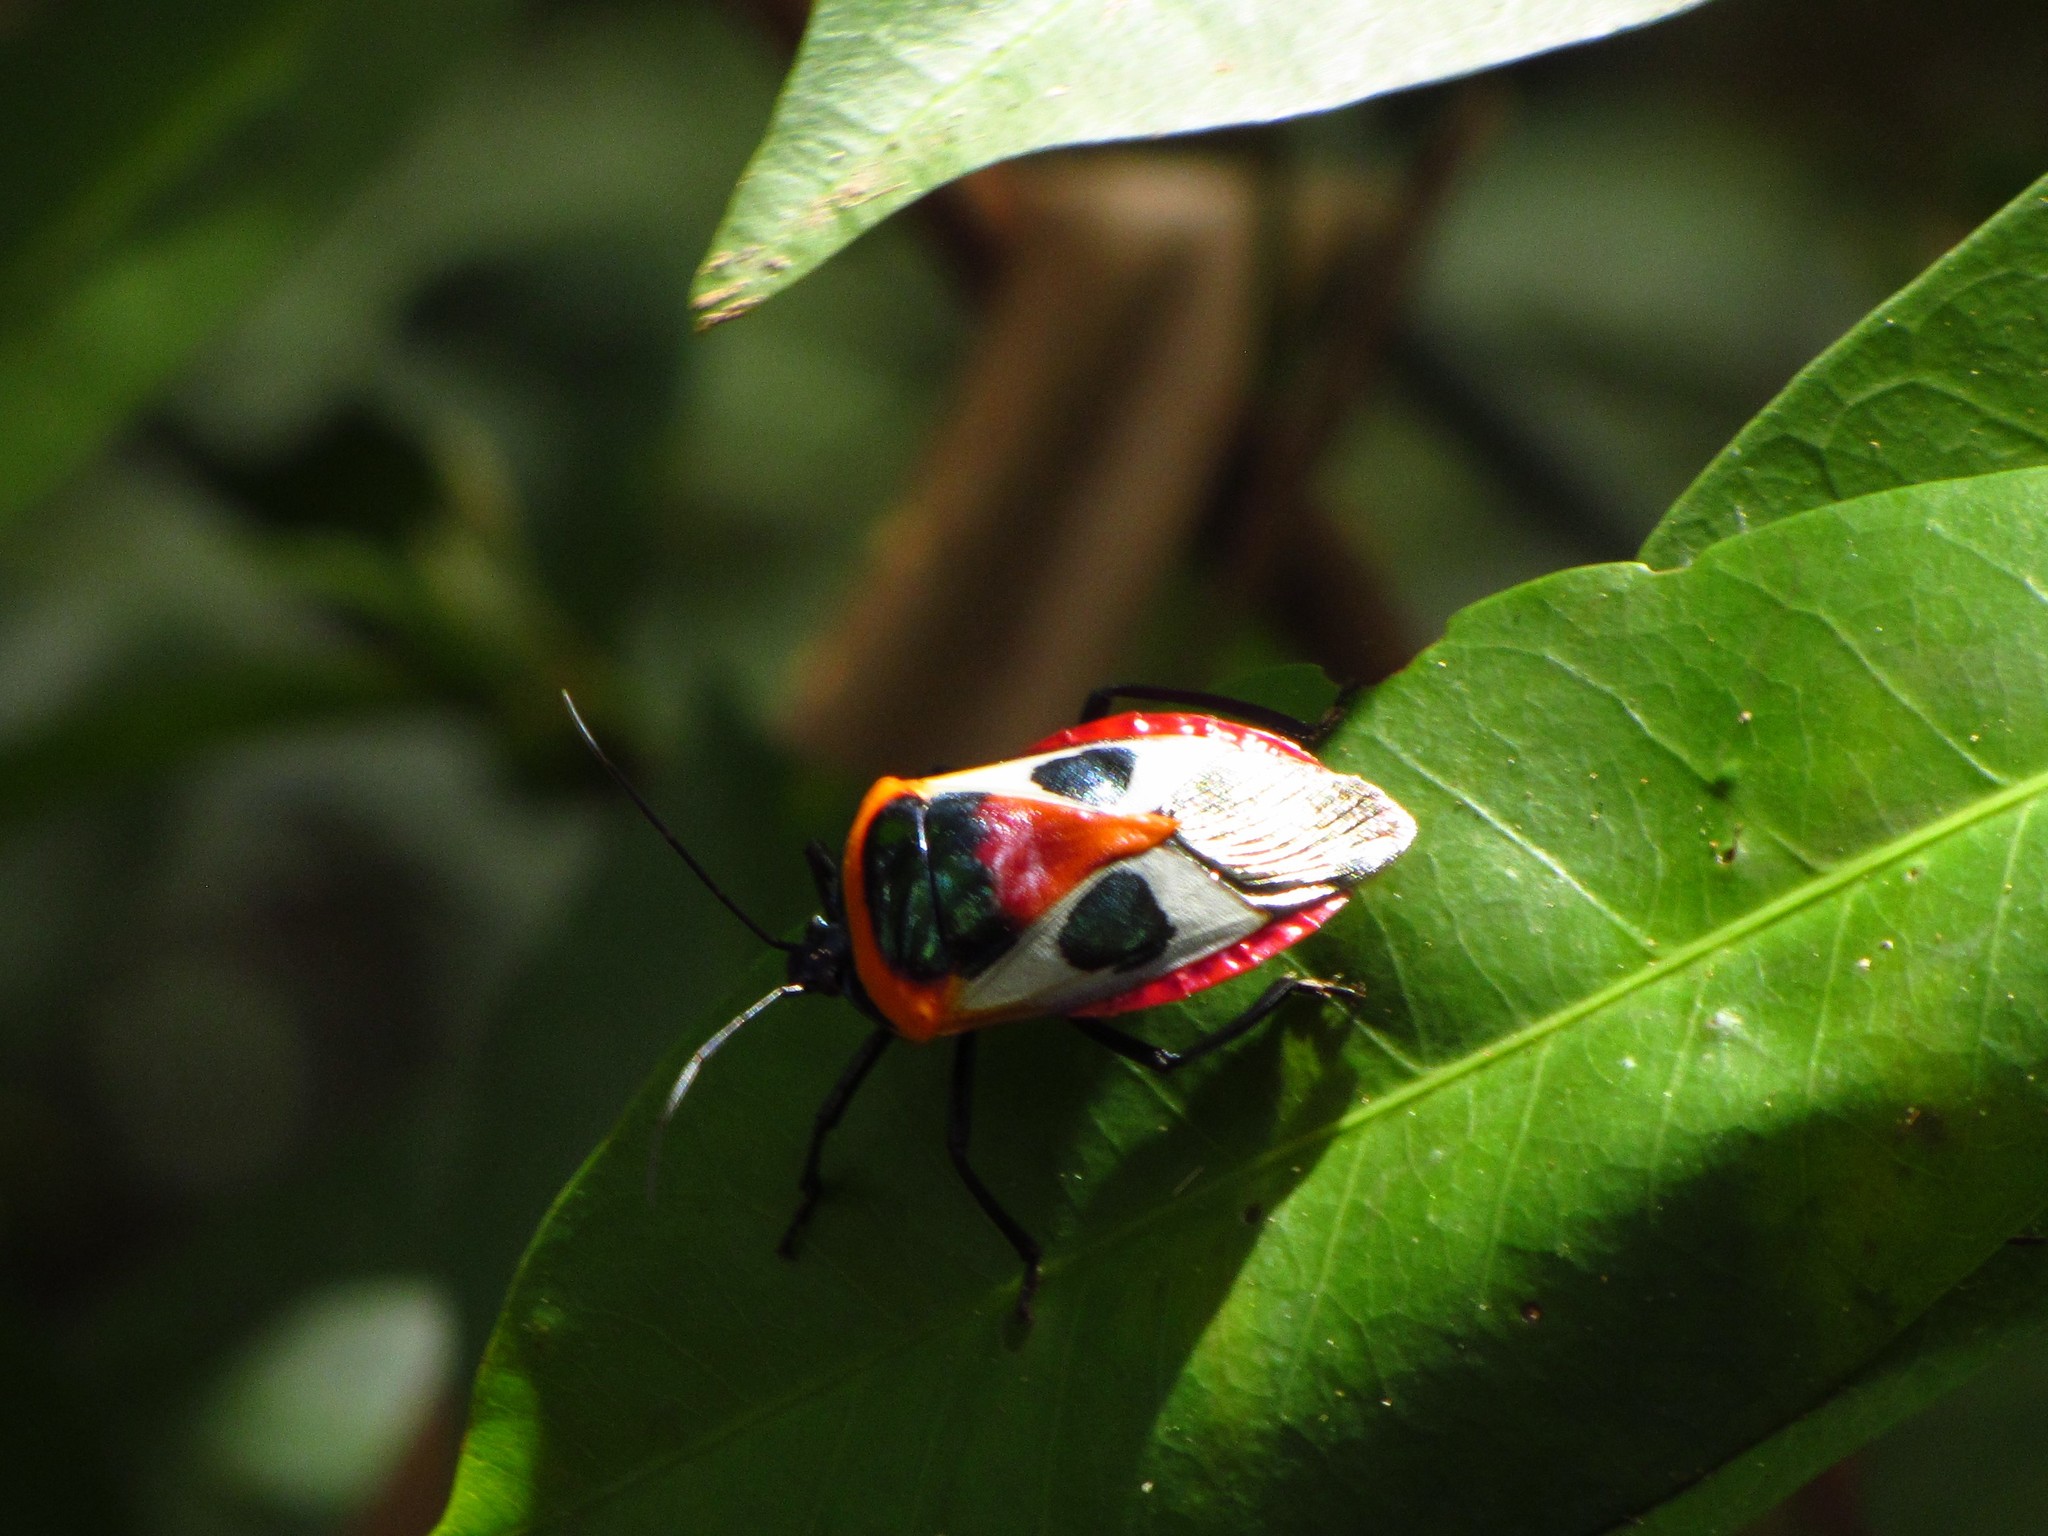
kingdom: Animalia
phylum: Arthropoda
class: Insecta
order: Hemiptera
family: Pentatomidae
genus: Catacanthus
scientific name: Catacanthus
